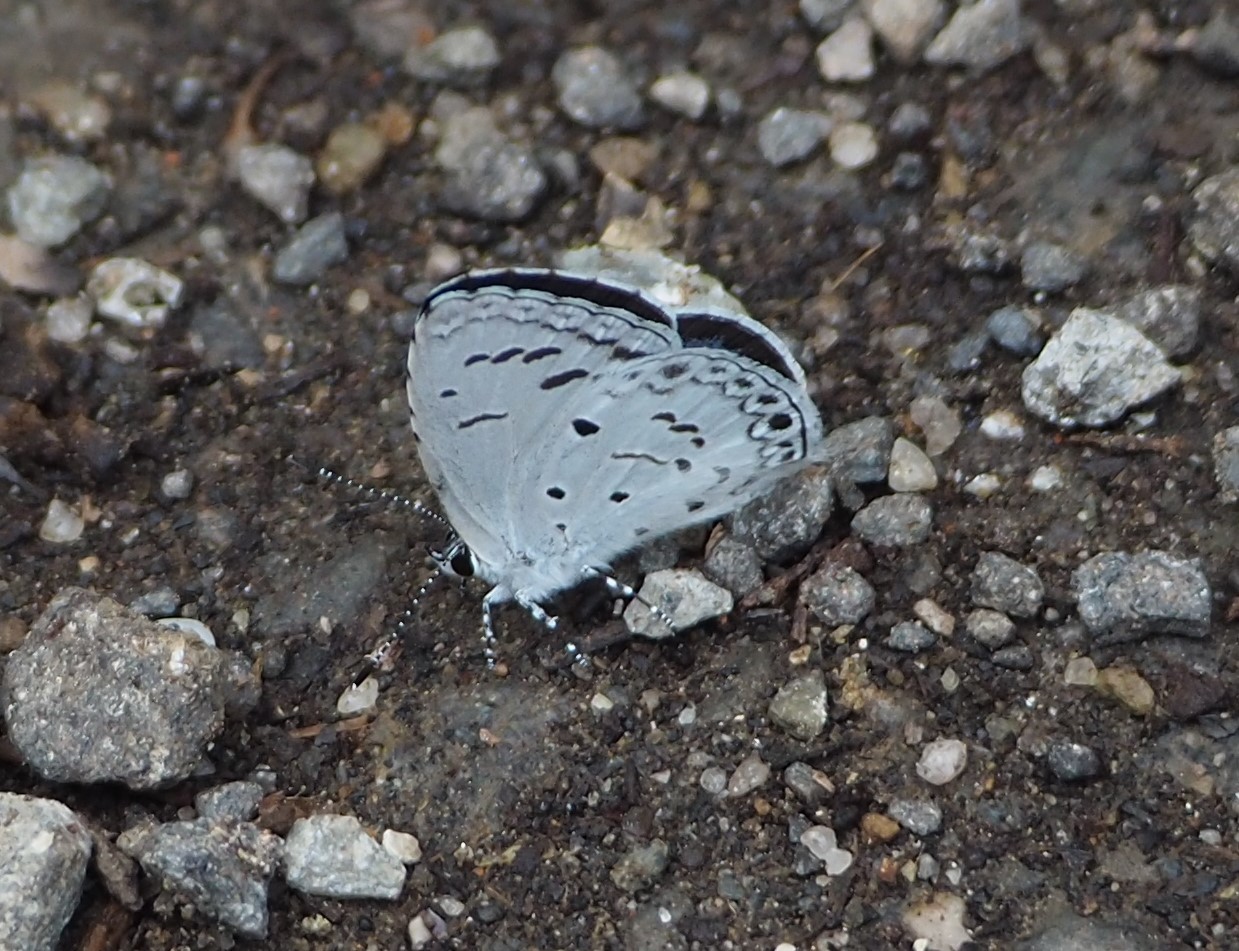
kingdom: Animalia
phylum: Arthropoda
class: Insecta
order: Lepidoptera
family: Lycaenidae
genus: Acytolepis
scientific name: Acytolepis puspa
